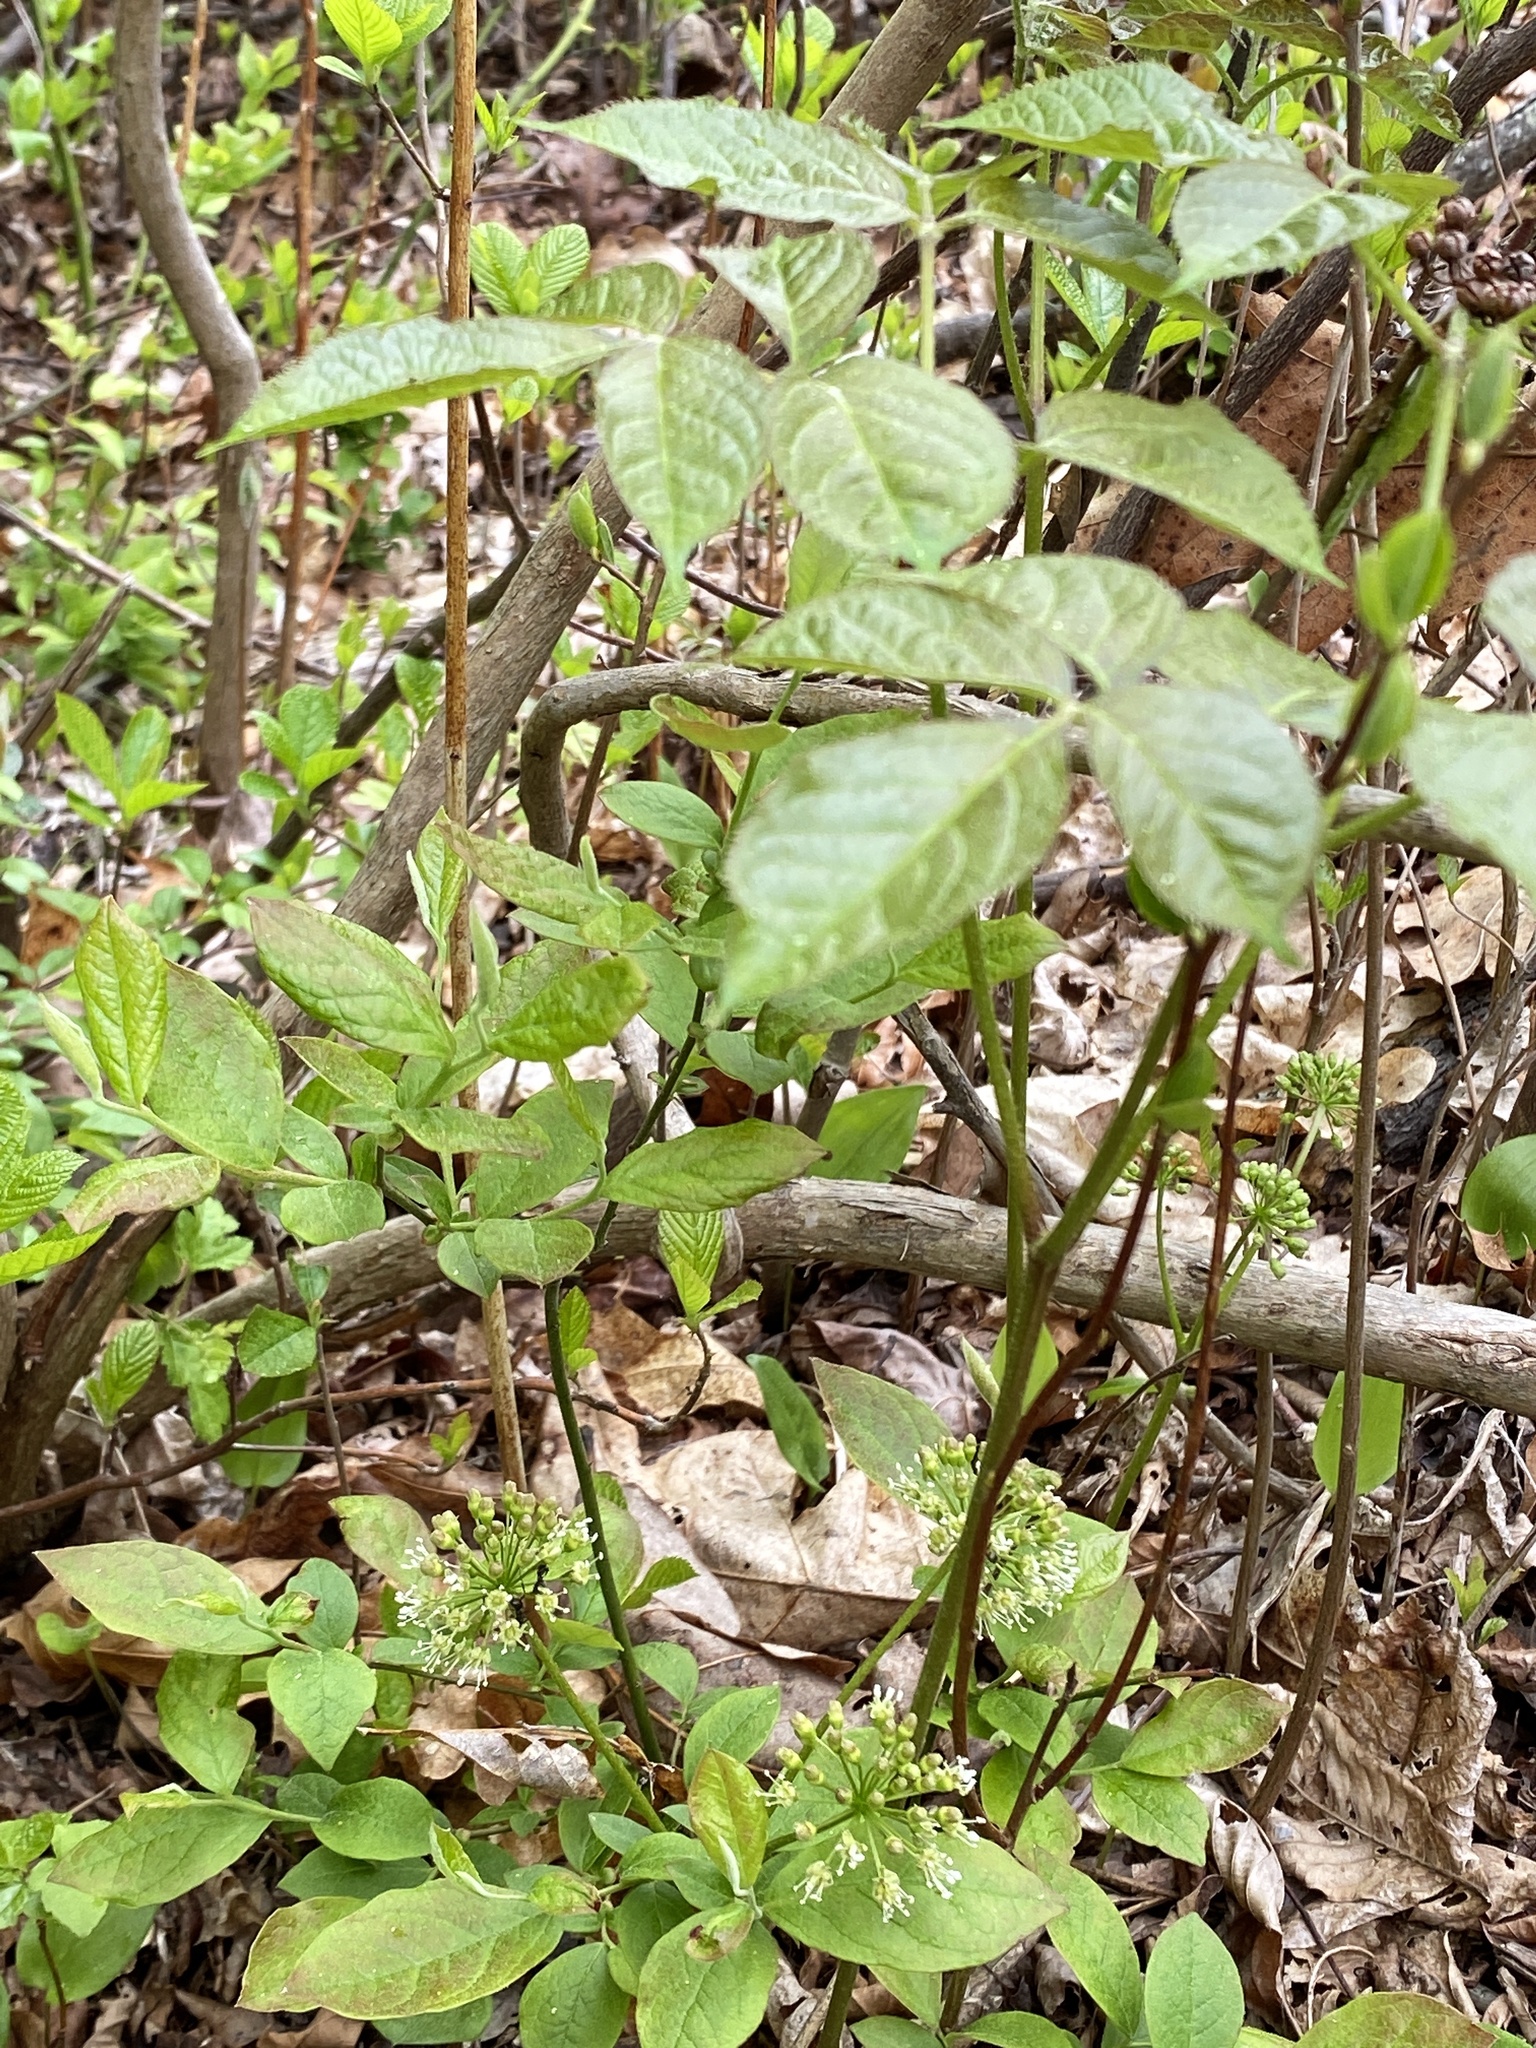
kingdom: Plantae
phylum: Tracheophyta
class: Magnoliopsida
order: Apiales
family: Araliaceae
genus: Aralia
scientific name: Aralia nudicaulis
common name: Wild sarsaparilla
